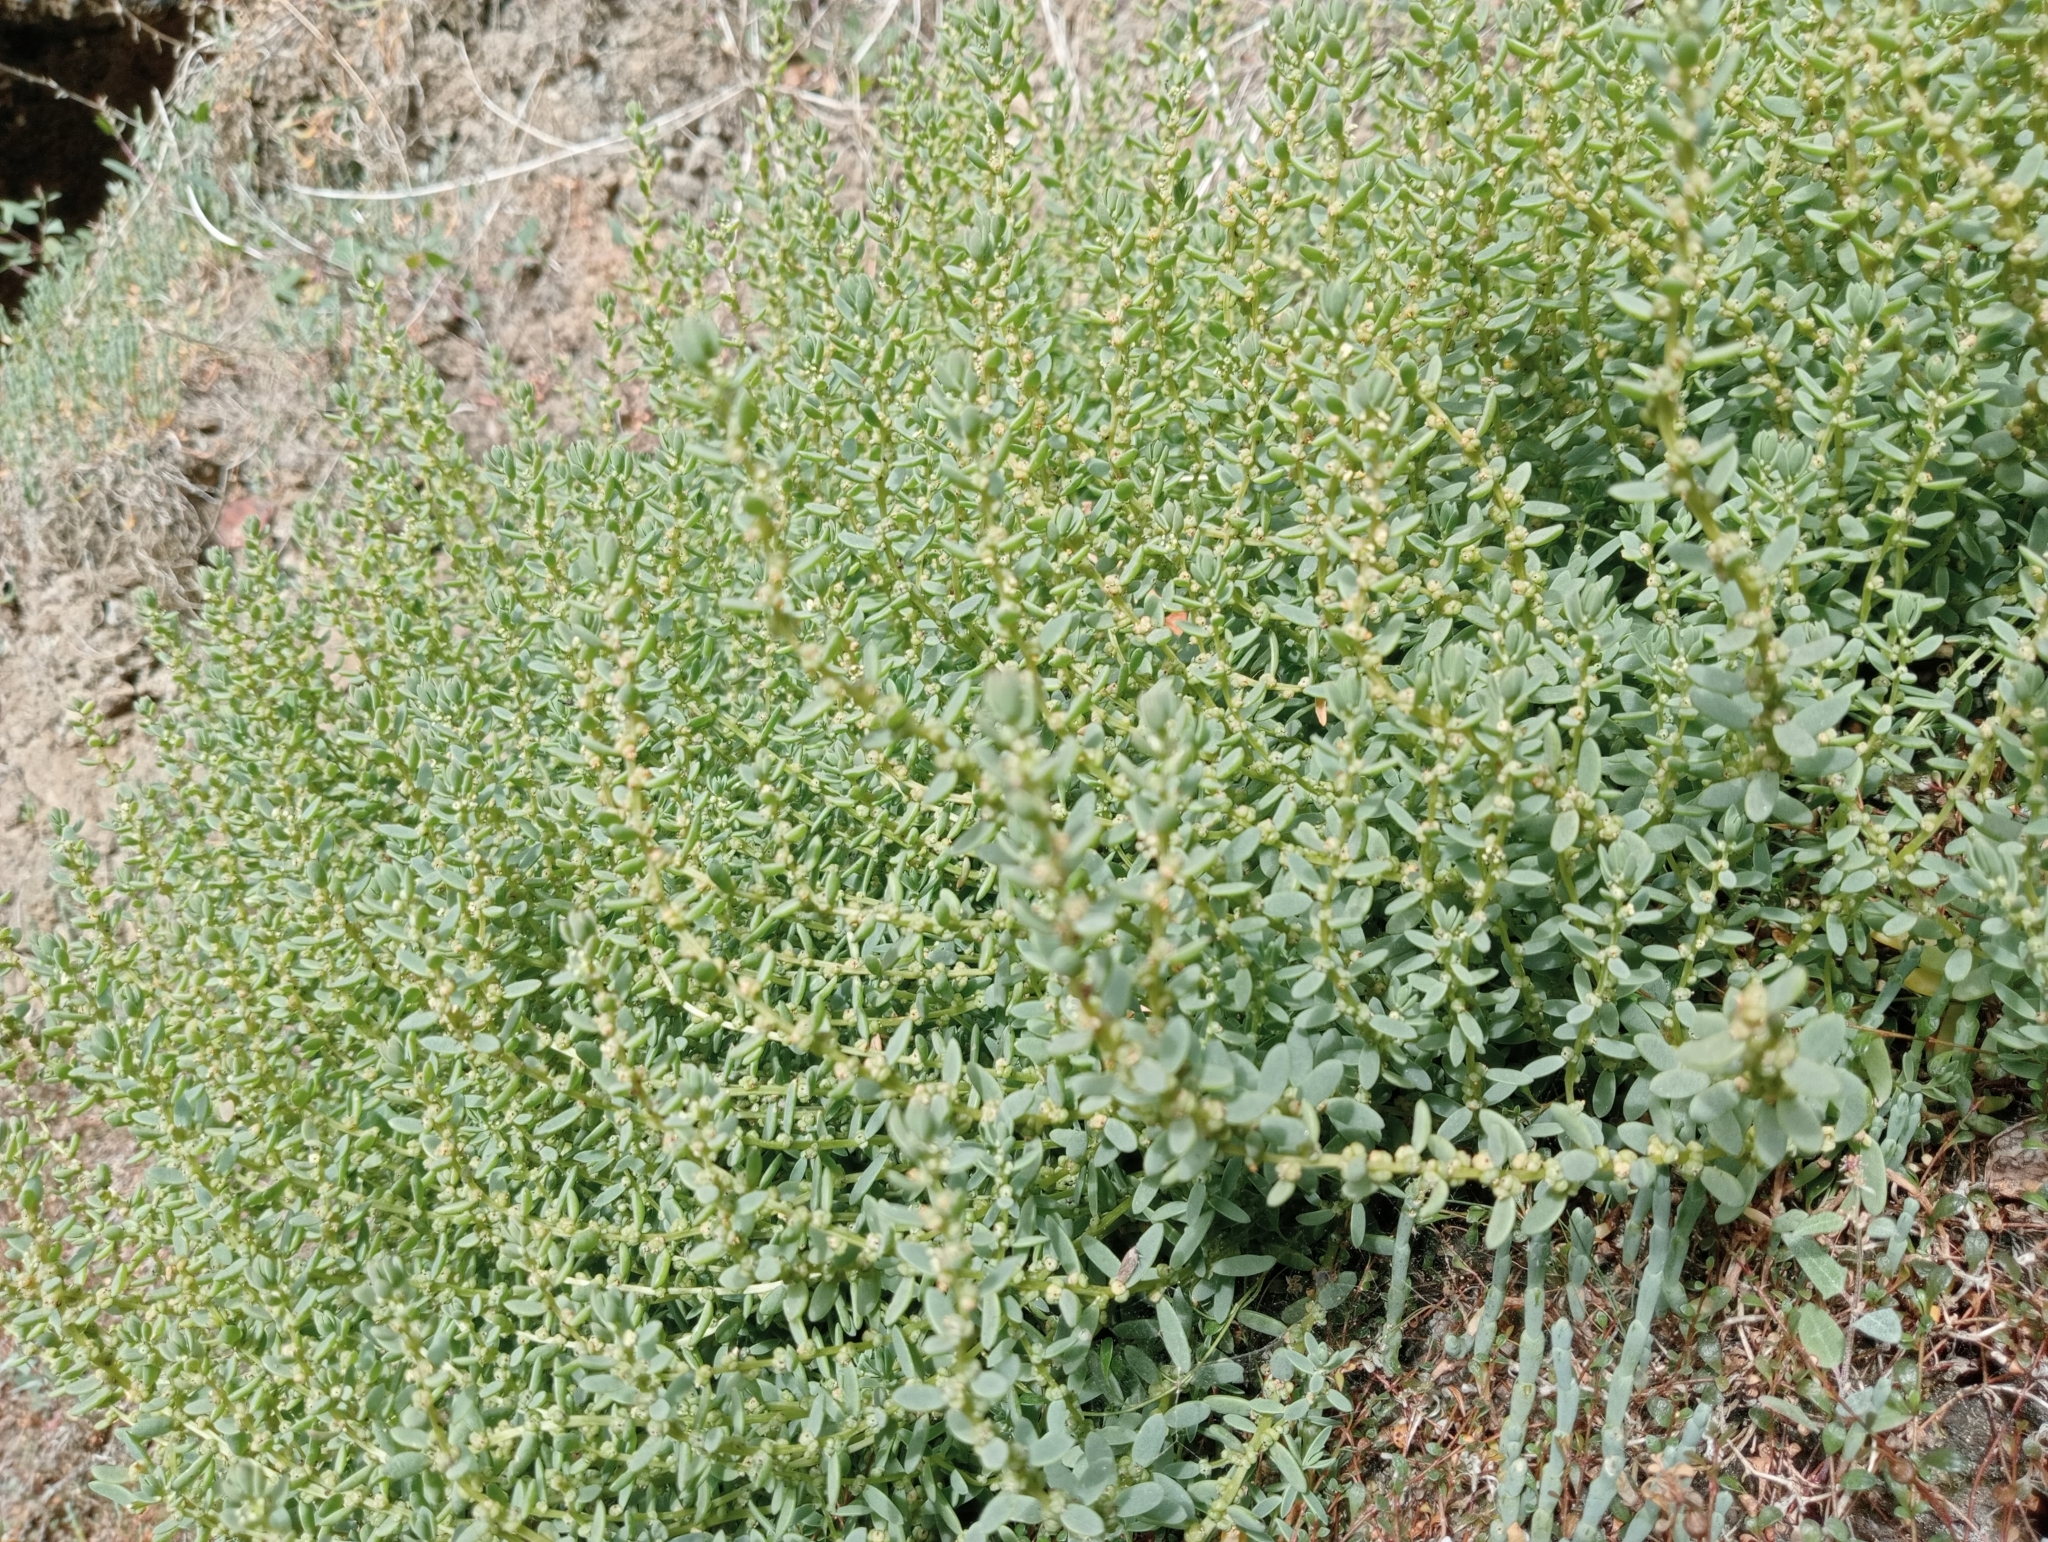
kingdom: Plantae
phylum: Tracheophyta
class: Magnoliopsida
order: Caryophyllales
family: Amaranthaceae
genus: Suaeda
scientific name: Suaeda novae-zelandiae
